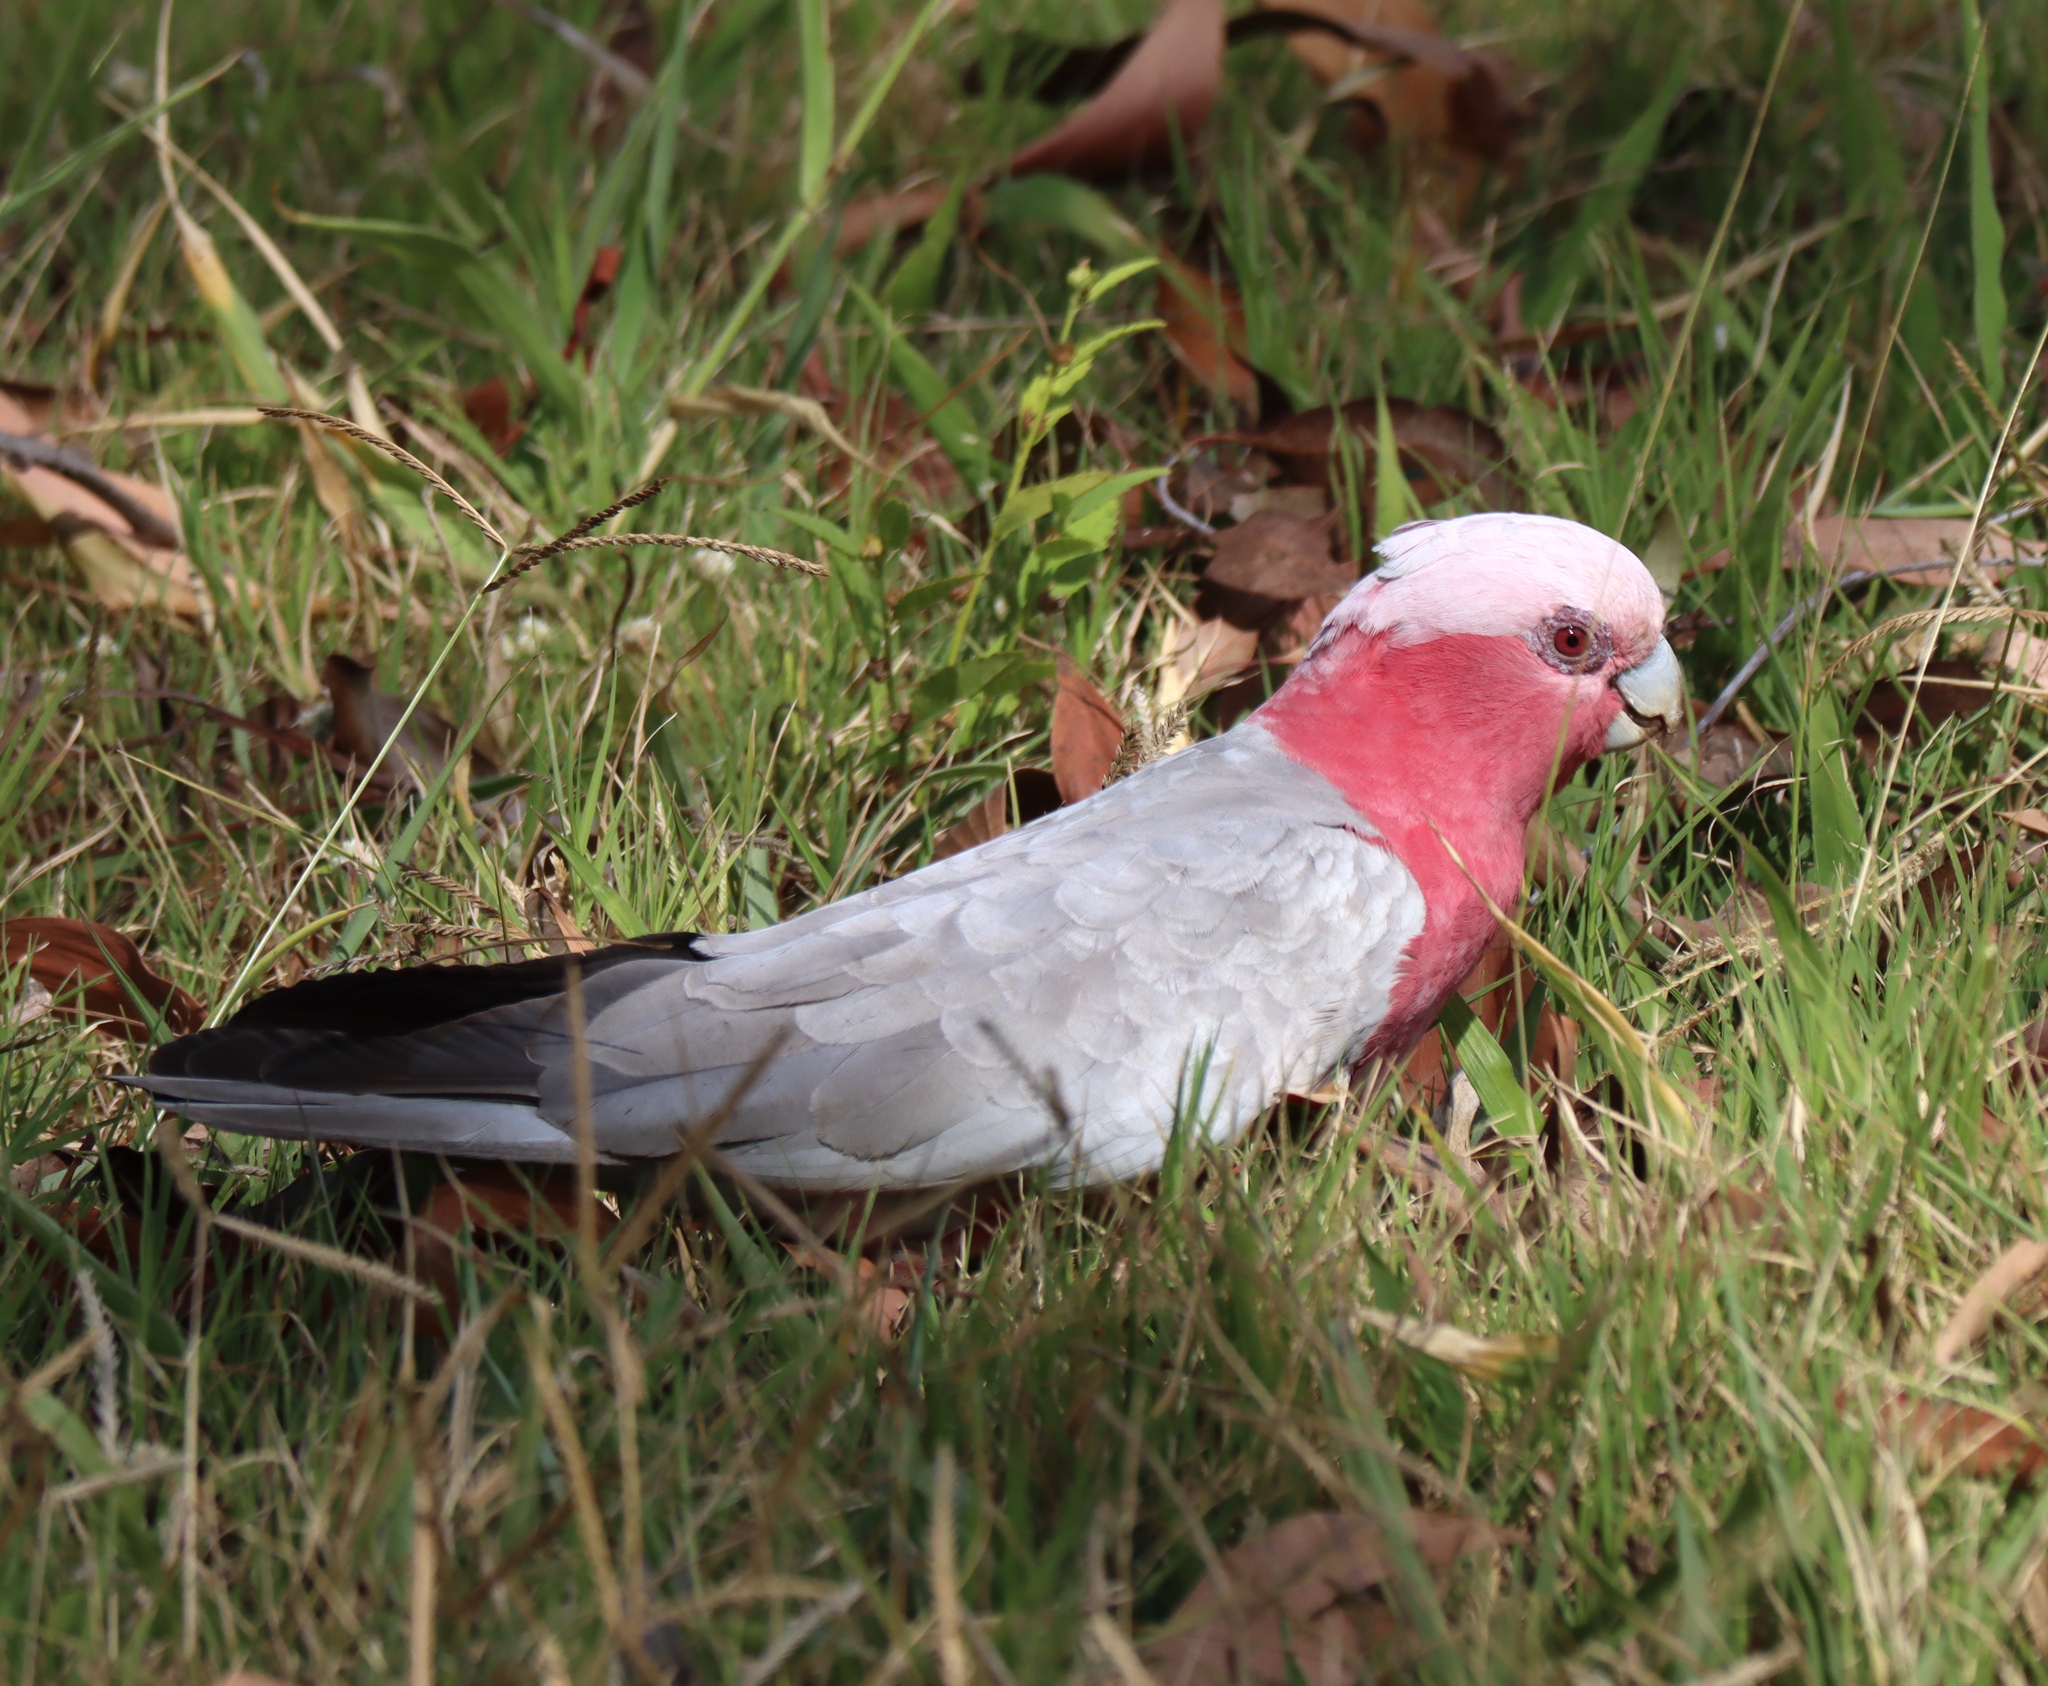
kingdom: Animalia
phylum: Chordata
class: Aves
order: Psittaciformes
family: Psittacidae
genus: Eolophus
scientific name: Eolophus roseicapilla
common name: Galah
